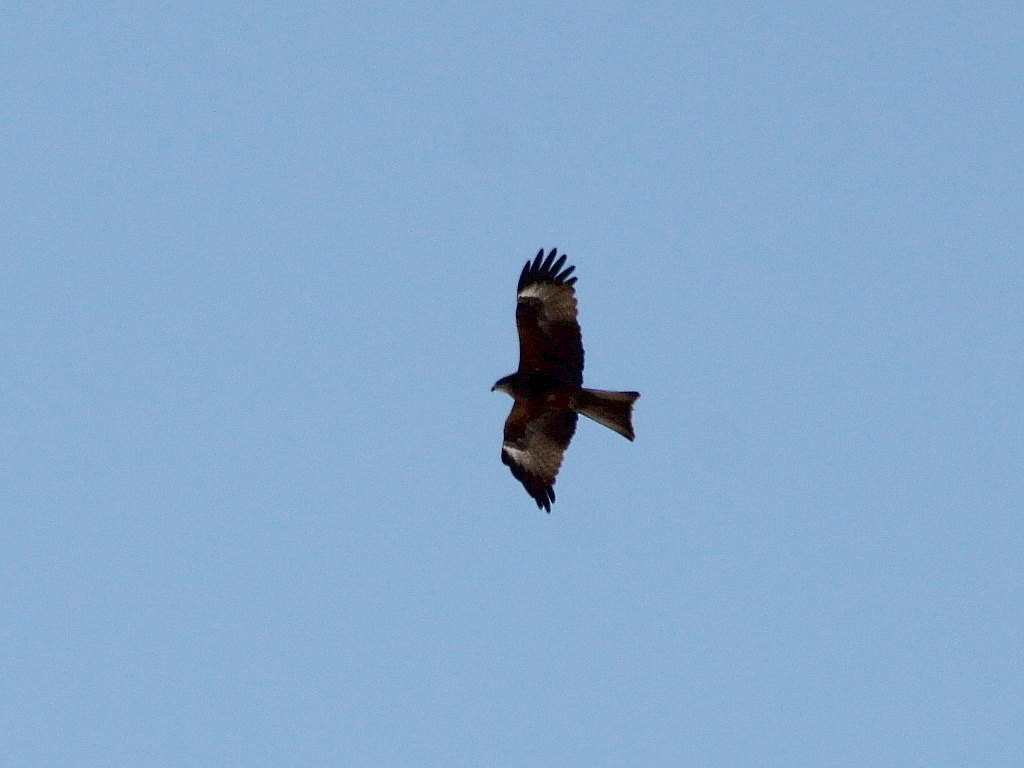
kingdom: Animalia
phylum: Chordata
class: Aves
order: Accipitriformes
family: Accipitridae
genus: Milvus
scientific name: Milvus migrans
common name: Black kite
